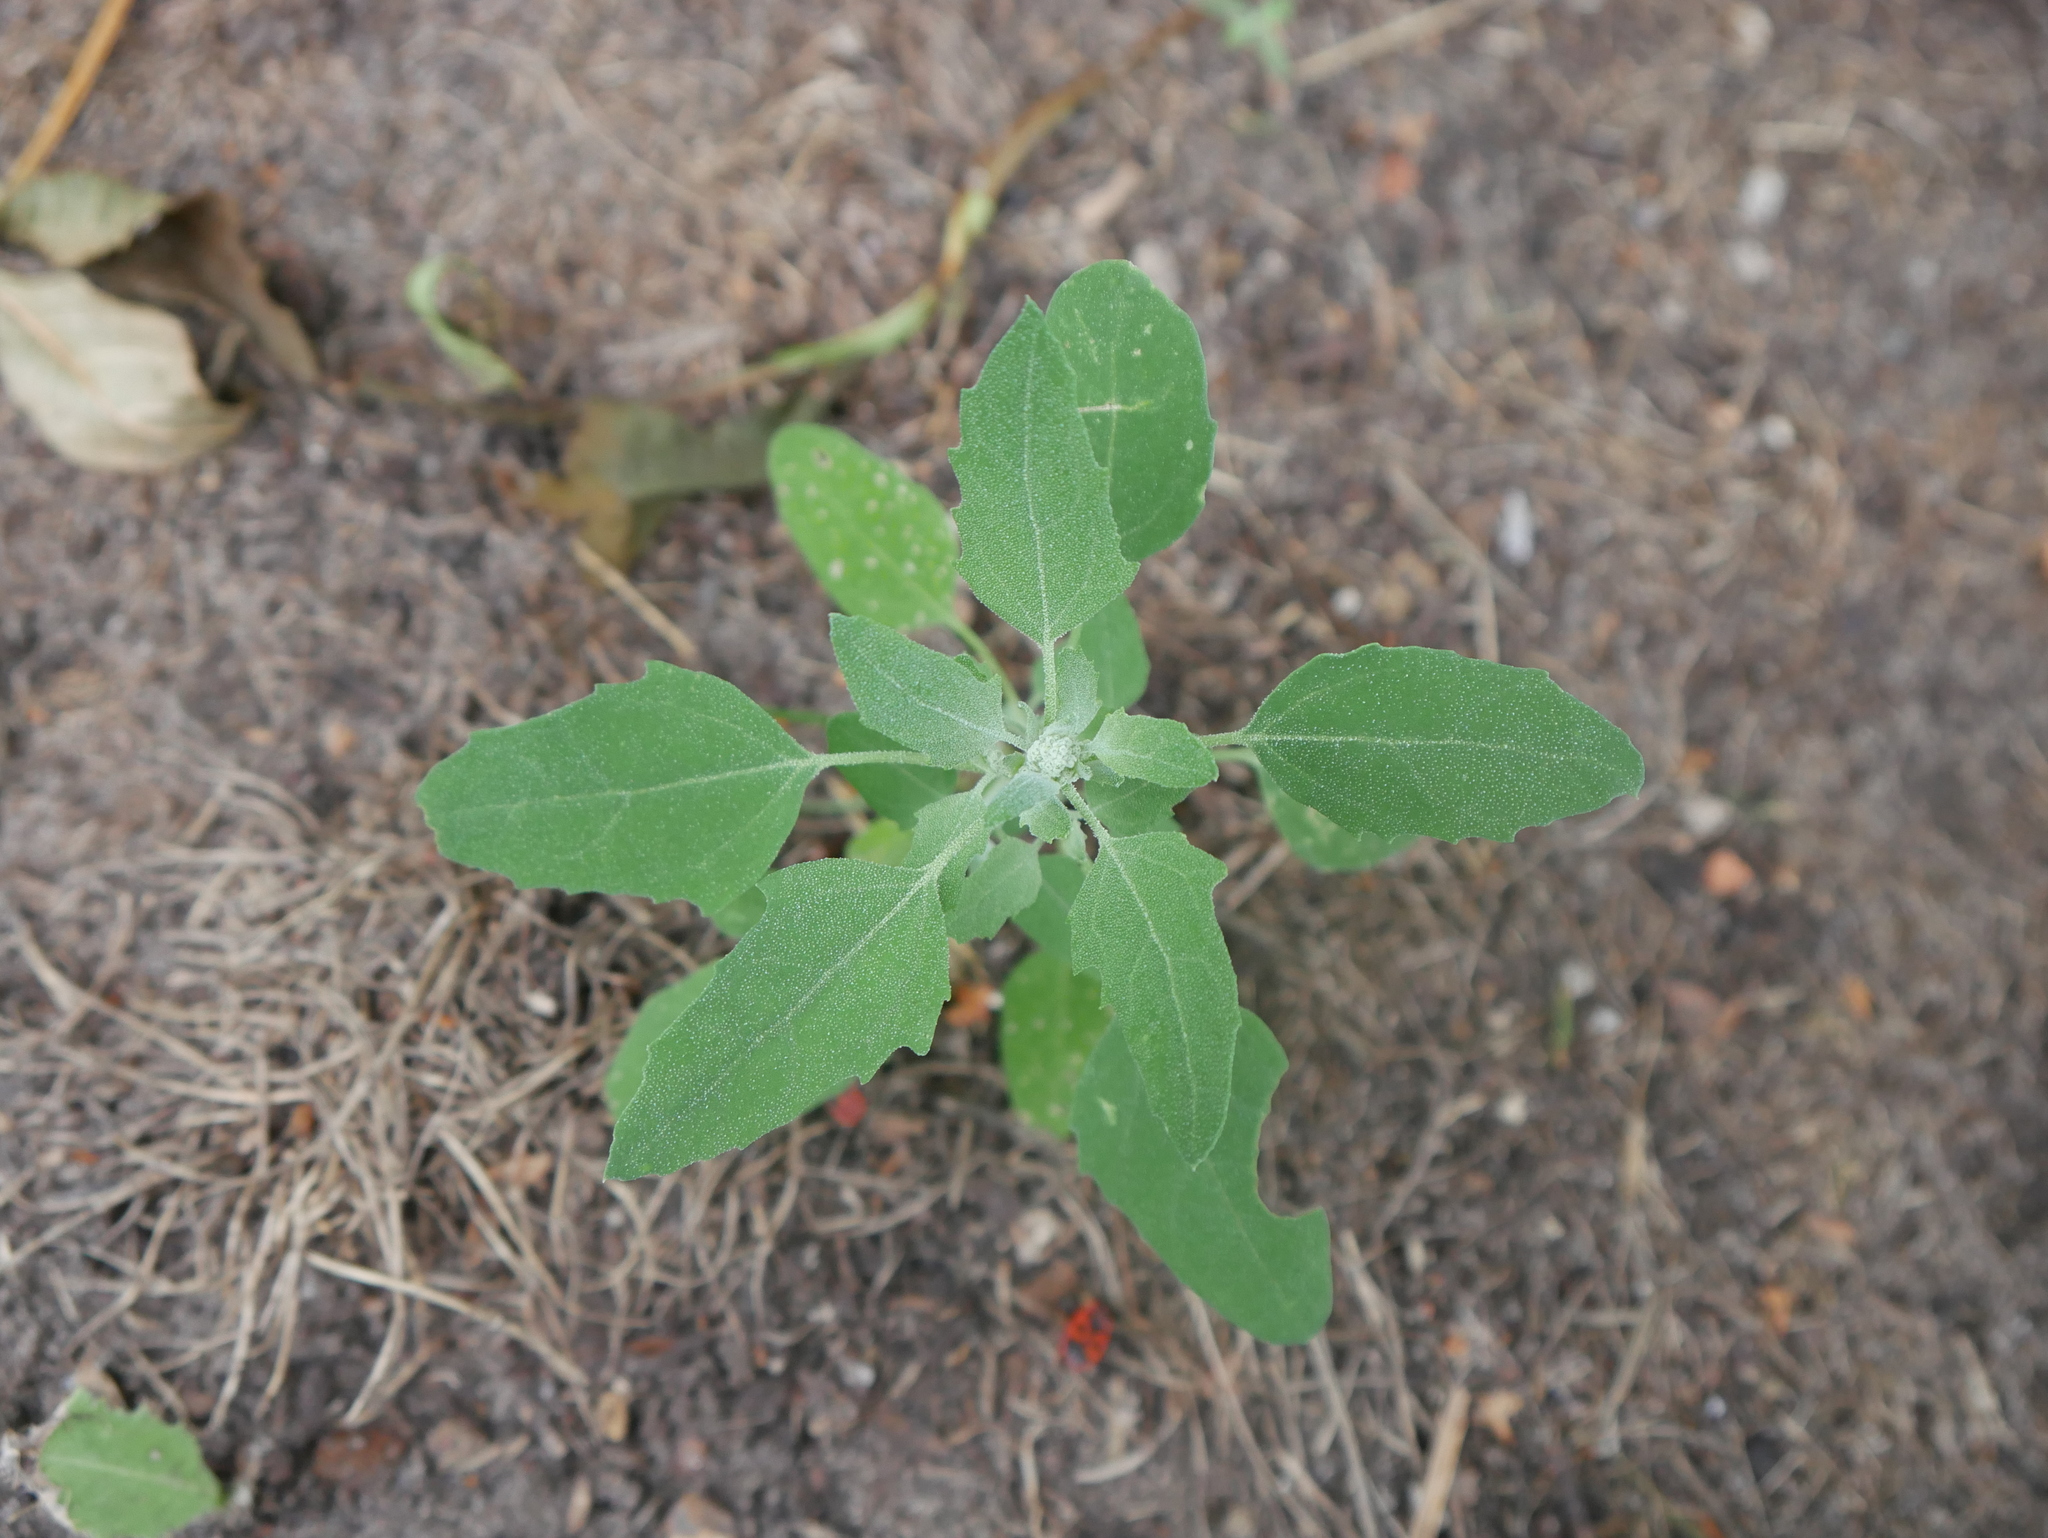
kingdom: Plantae
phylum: Tracheophyta
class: Magnoliopsida
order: Caryophyllales
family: Amaranthaceae
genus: Chenopodium
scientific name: Chenopodium album
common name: Fat-hen
